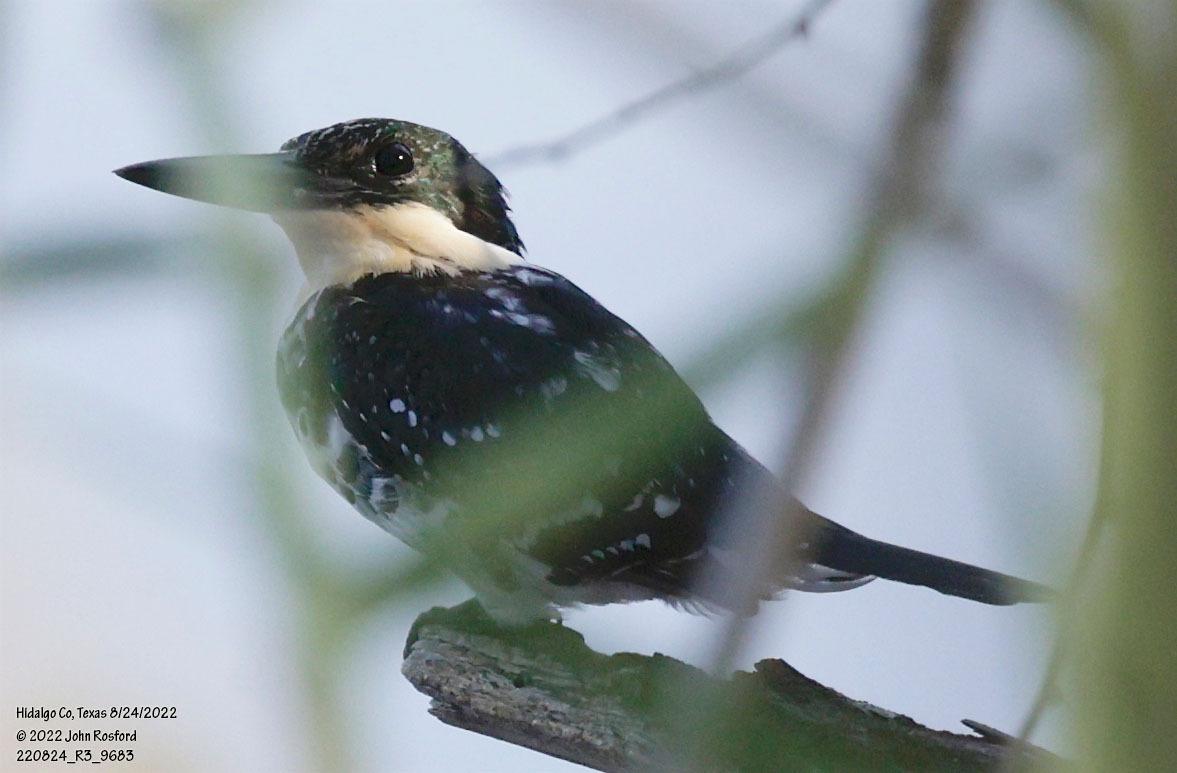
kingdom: Animalia
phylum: Chordata
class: Aves
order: Coraciiformes
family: Alcedinidae
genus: Chloroceryle
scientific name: Chloroceryle americana
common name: Green kingfisher
